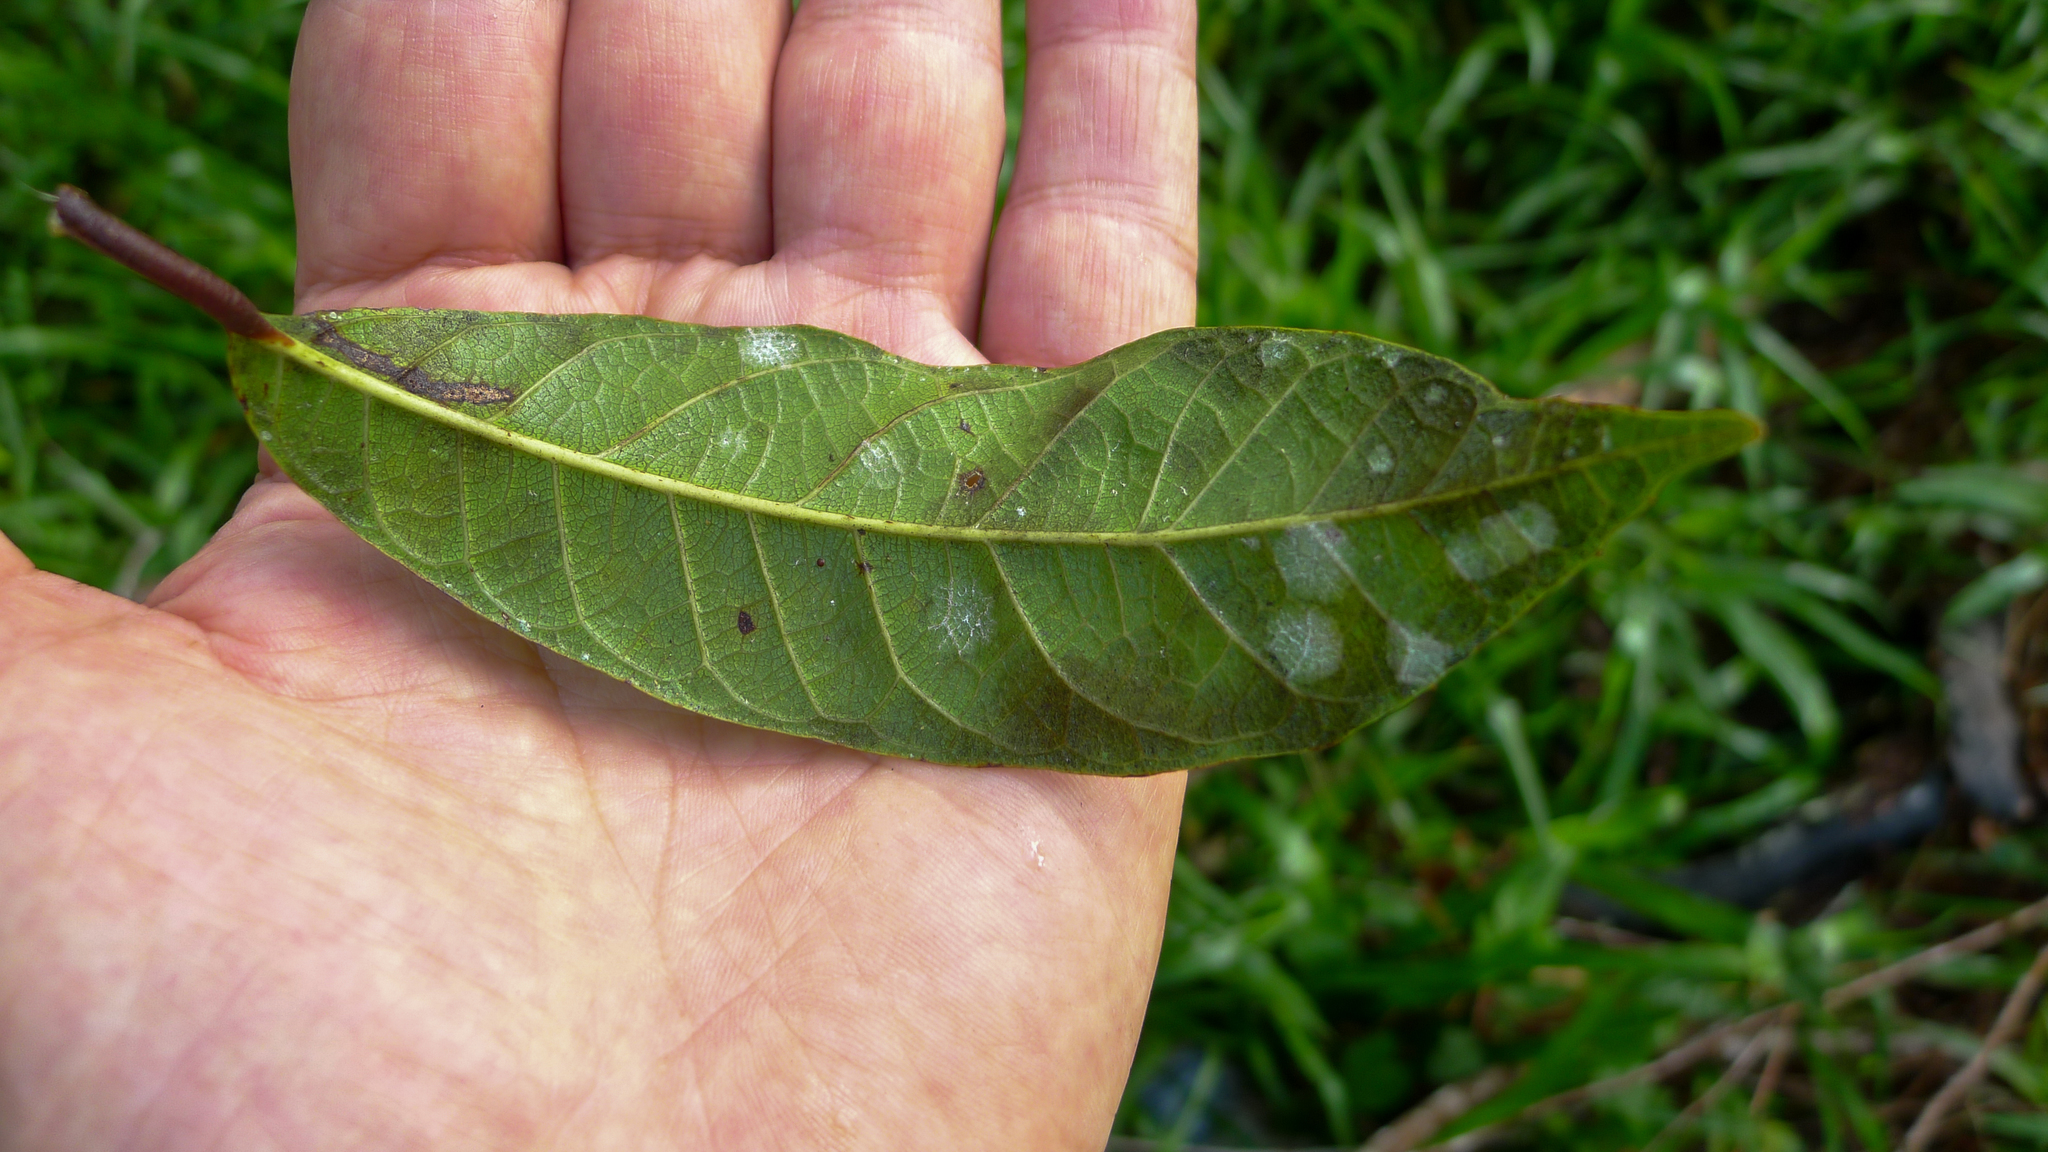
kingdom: Plantae
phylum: Tracheophyta
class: Magnoliopsida
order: Rosales
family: Moraceae
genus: Malaisia
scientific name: Malaisia scandens
